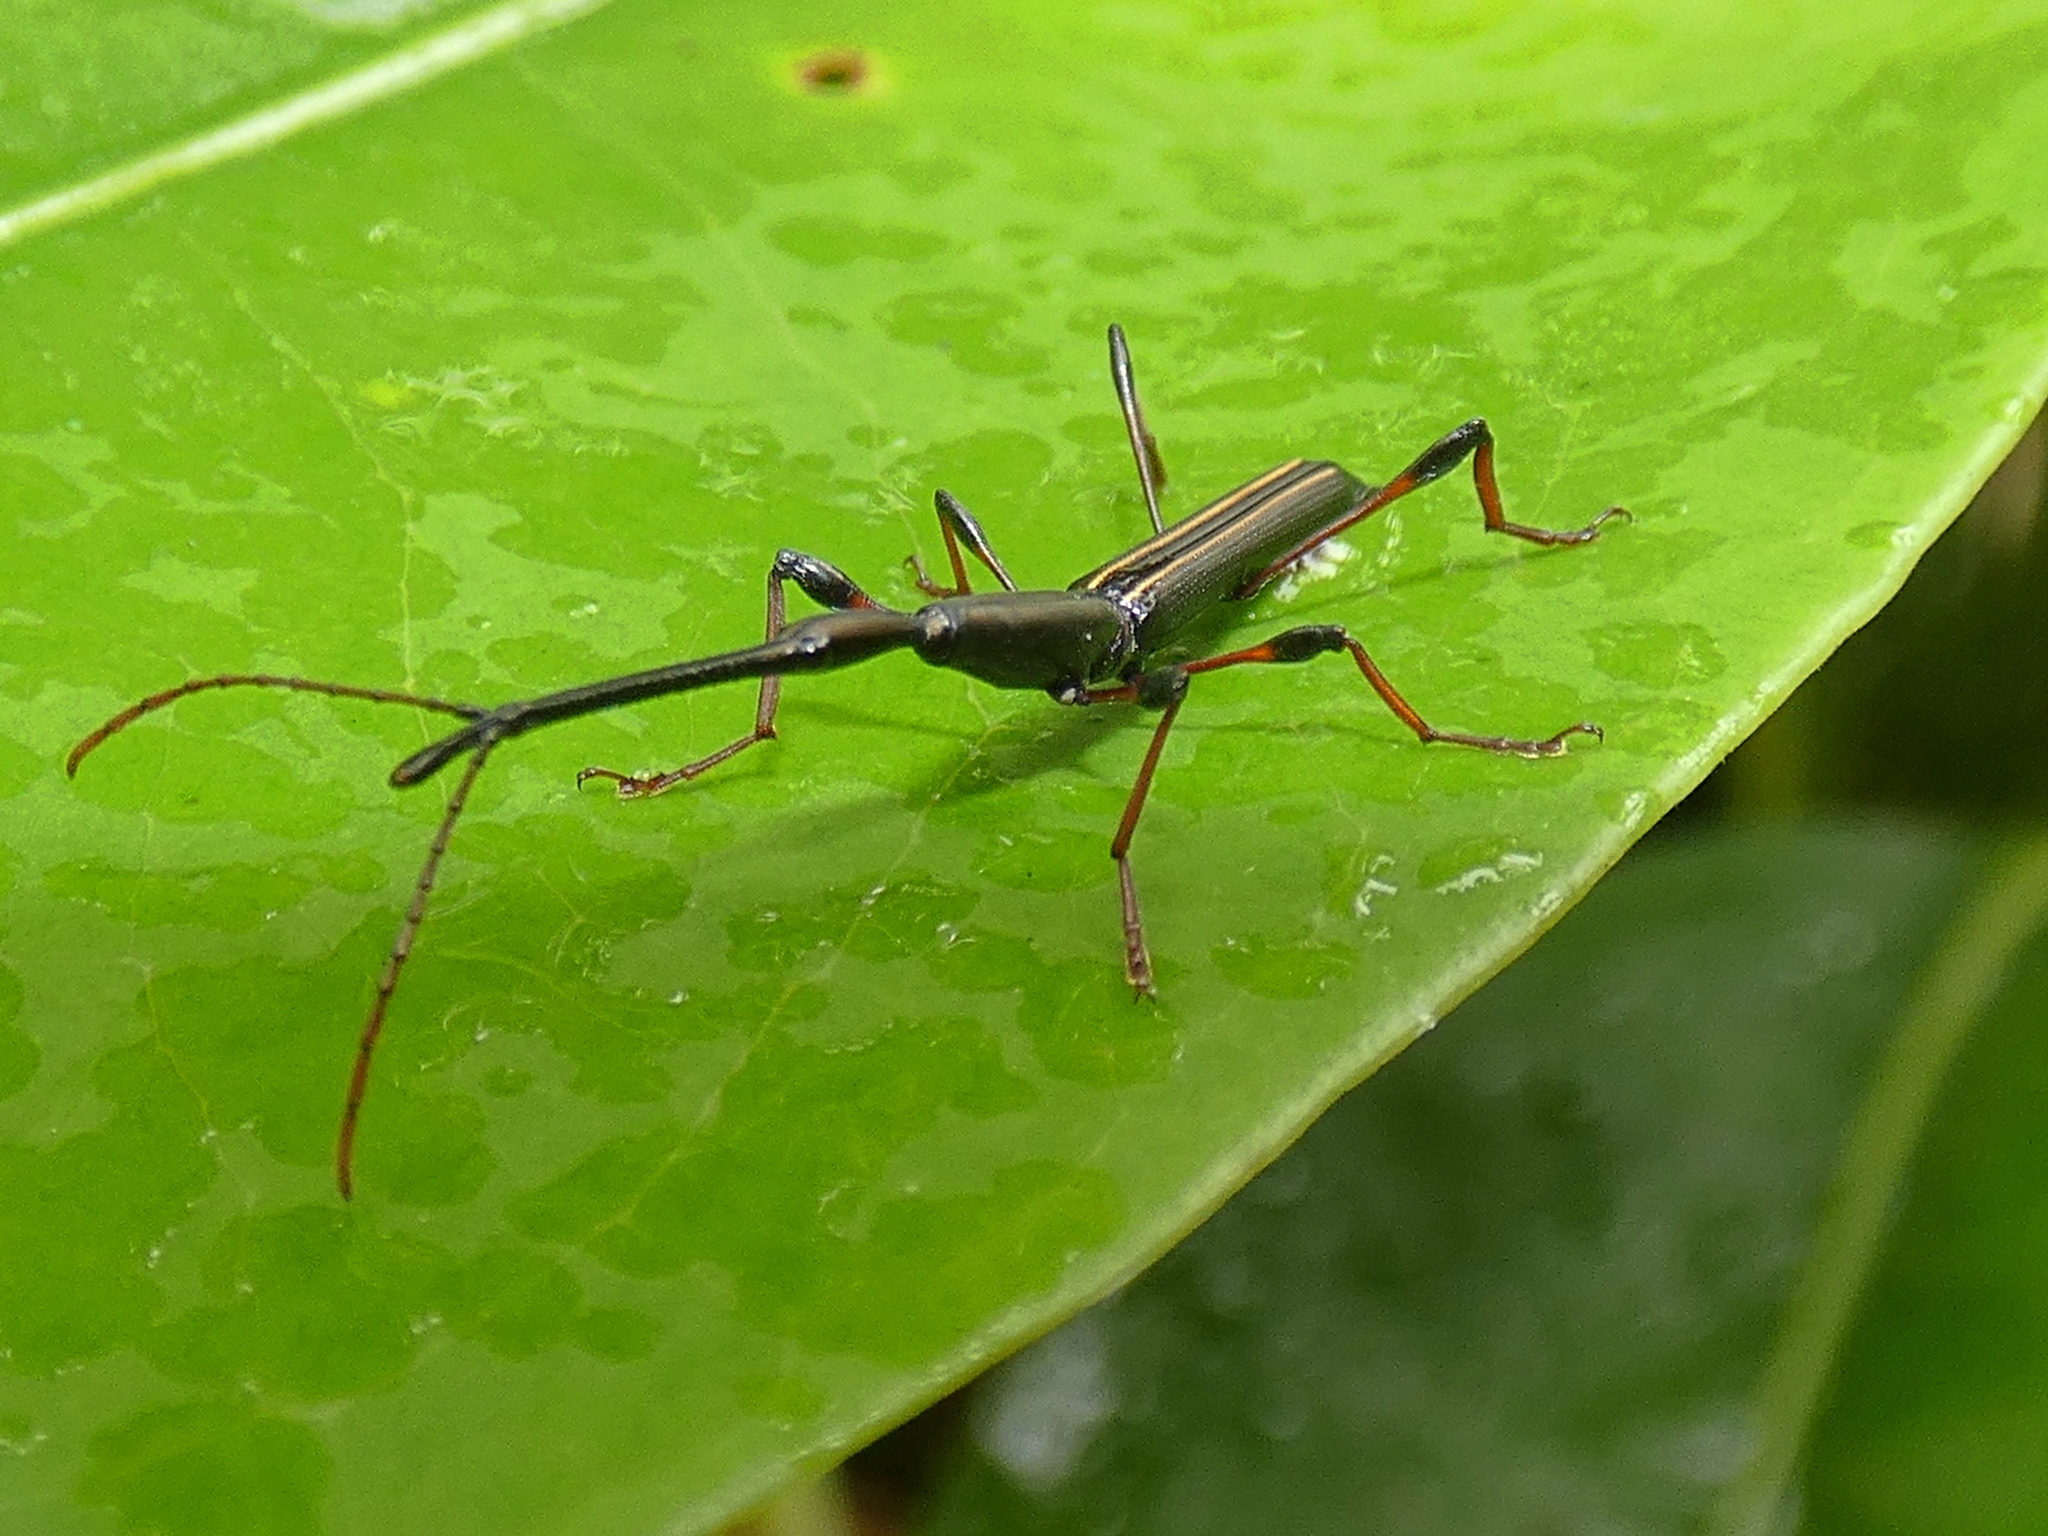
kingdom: Animalia
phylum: Arthropoda
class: Insecta
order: Coleoptera
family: Brentidae
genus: Ithystenus
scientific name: Ithystenus hollandiae
